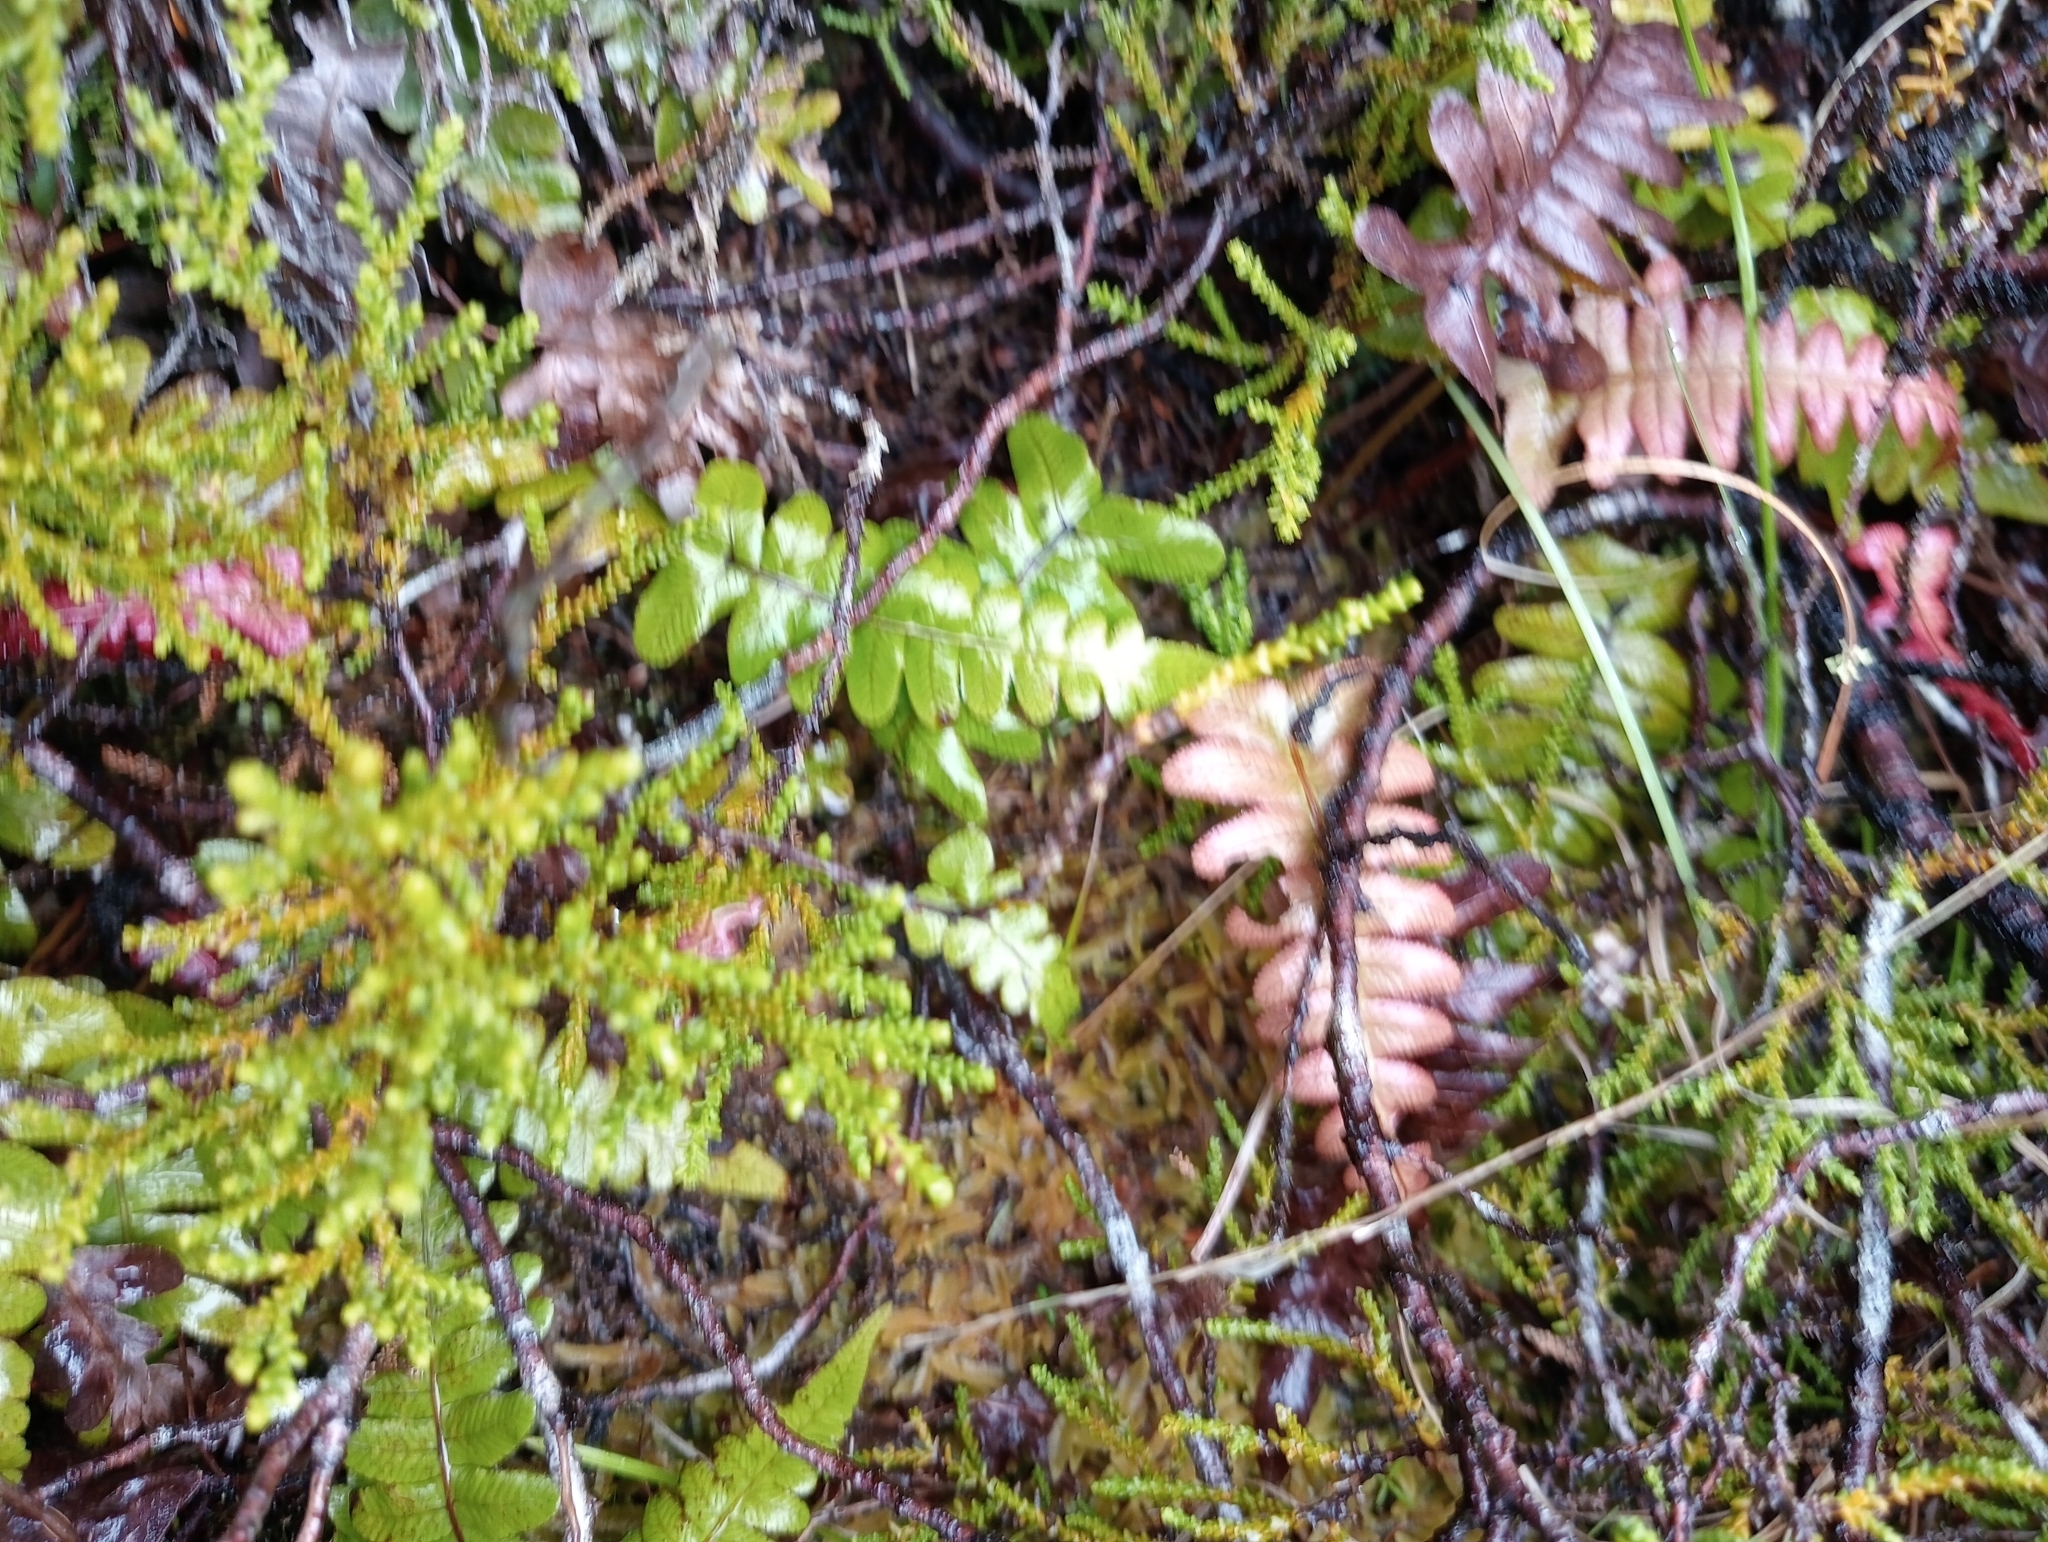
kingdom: Plantae
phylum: Tracheophyta
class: Polypodiopsida
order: Polypodiales
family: Blechnaceae
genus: Cranfillia
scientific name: Cranfillia deltoides
